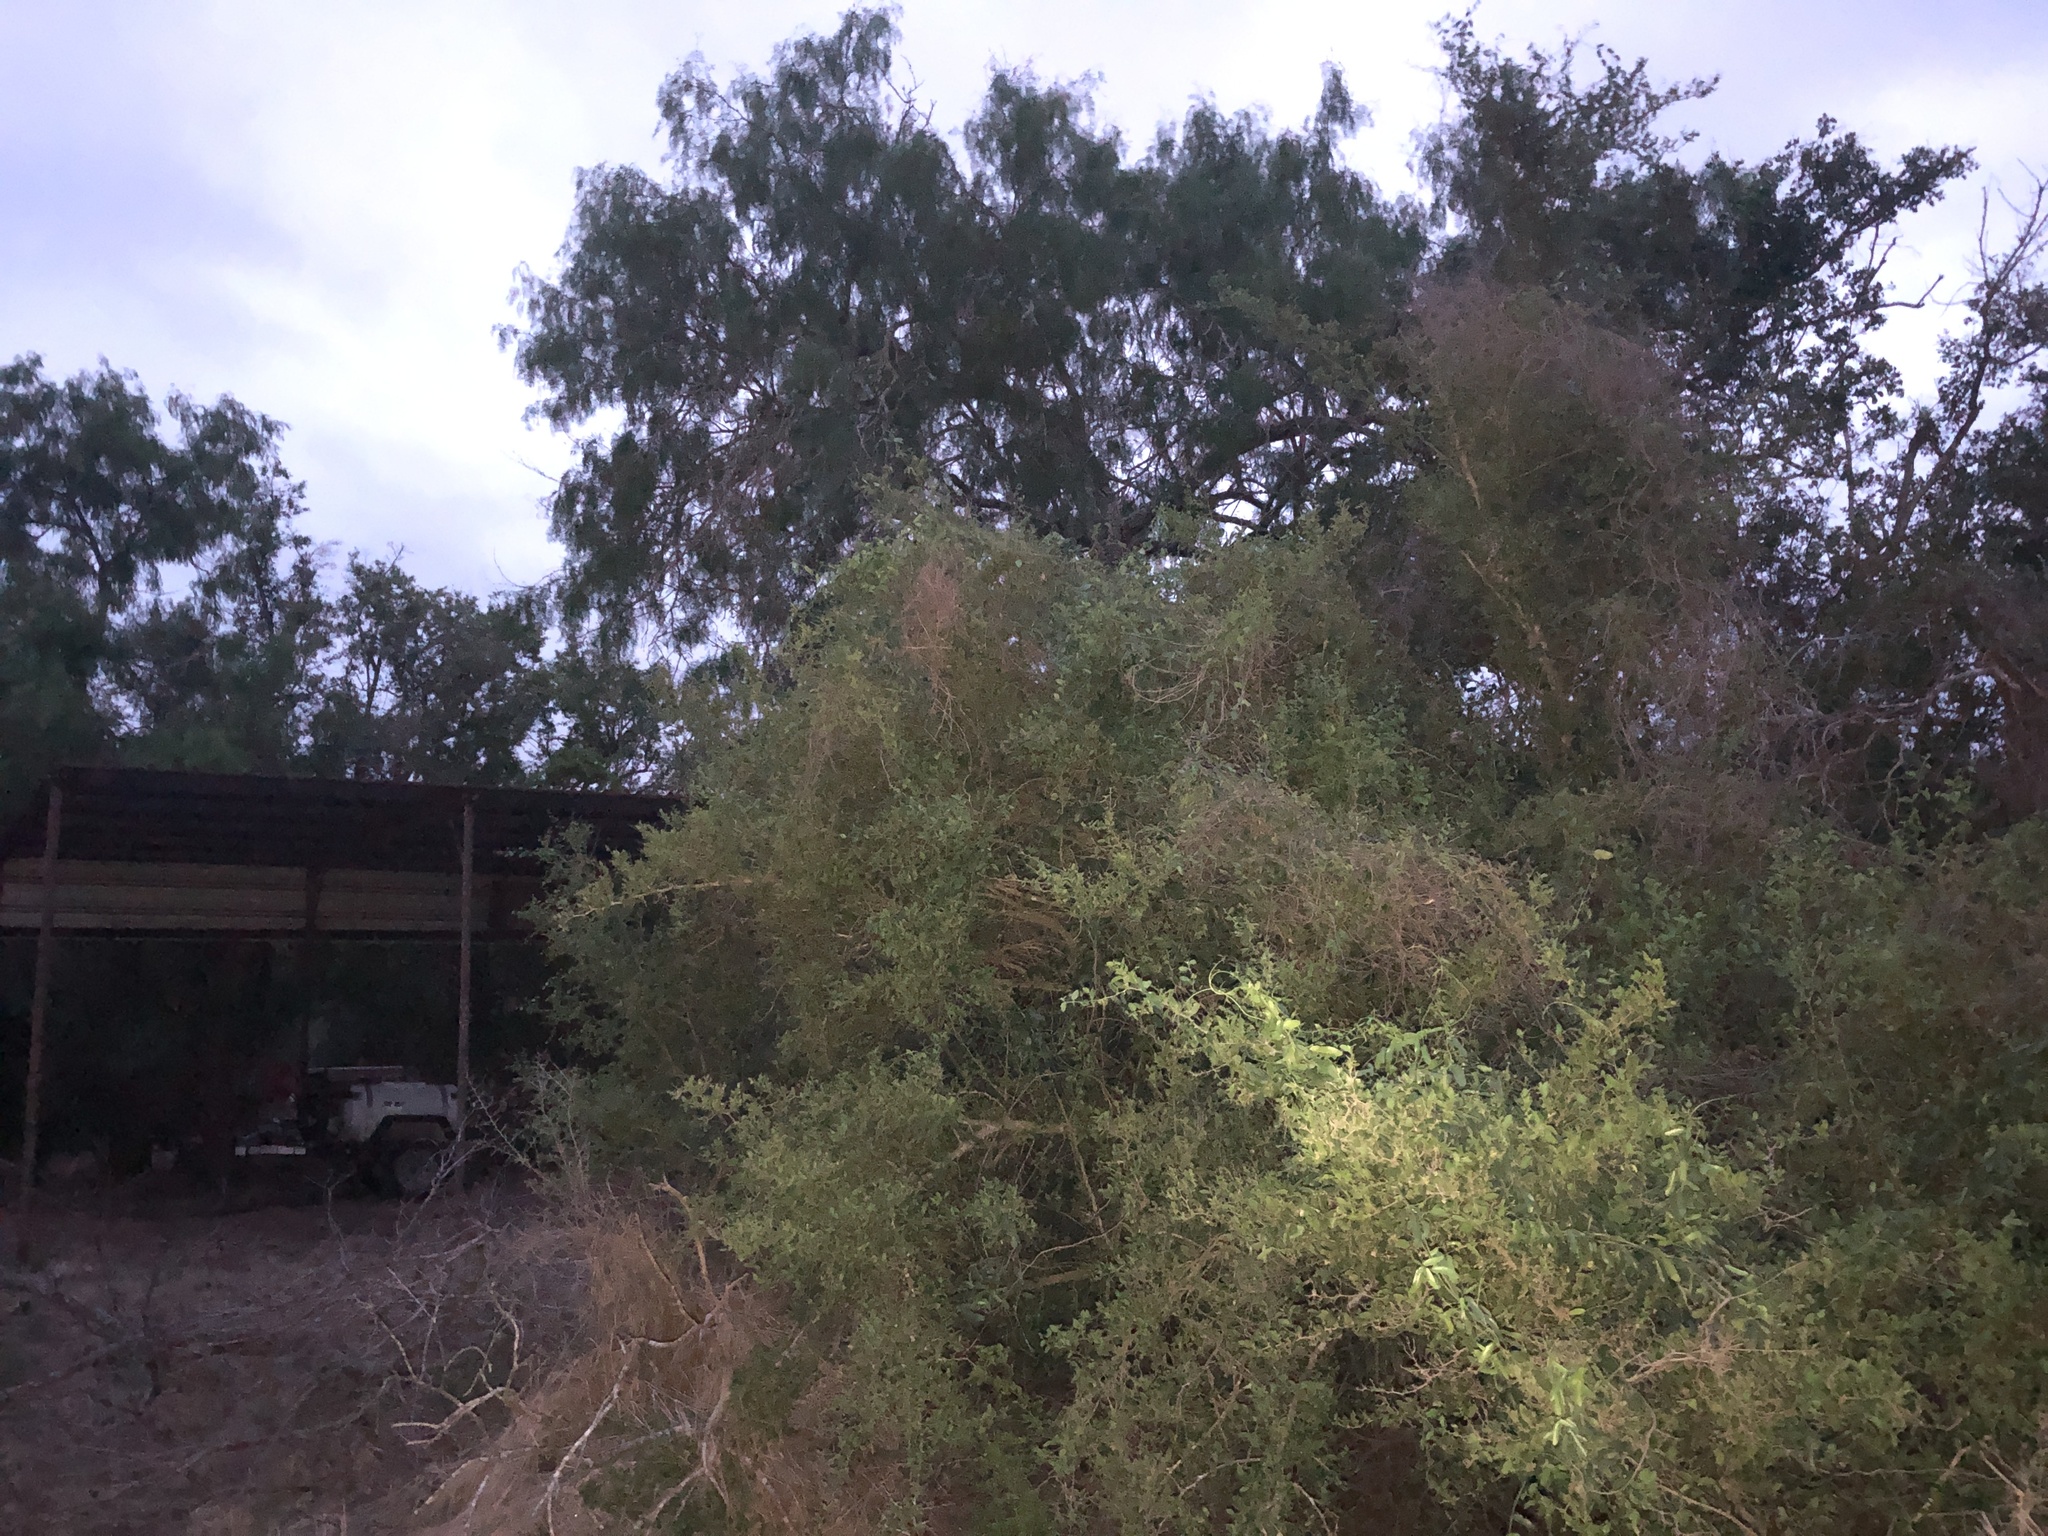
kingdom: Animalia
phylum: Chordata
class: Aves
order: Caprimulgiformes
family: Caprimulgidae
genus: Nyctidromus
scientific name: Nyctidromus albicollis
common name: Pauraque
